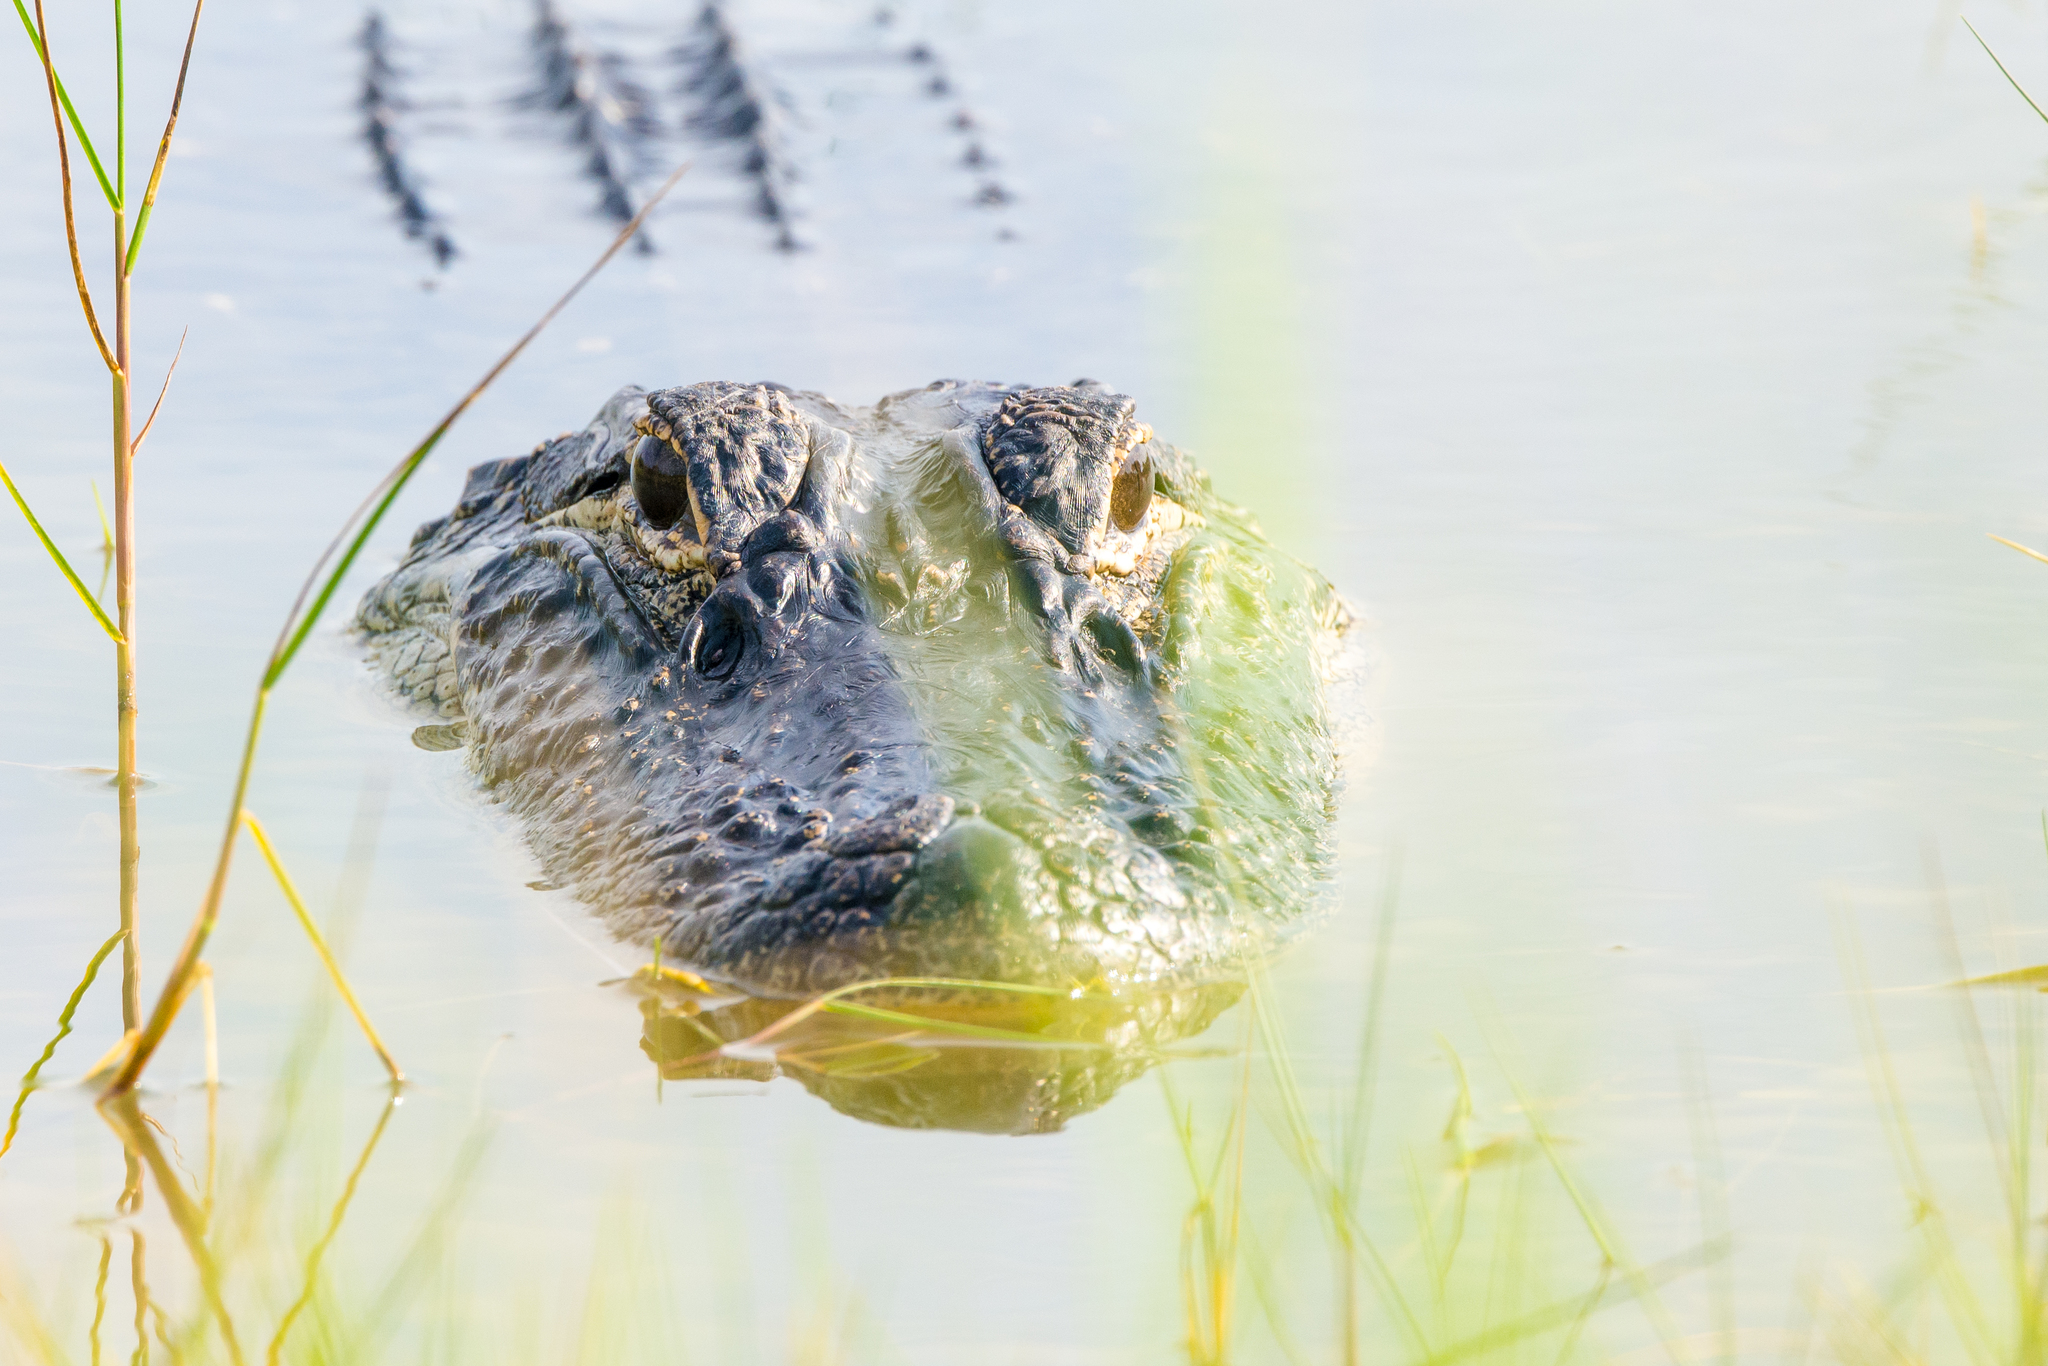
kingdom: Animalia
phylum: Chordata
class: Crocodylia
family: Alligatoridae
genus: Alligator
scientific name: Alligator mississippiensis
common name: American alligator
